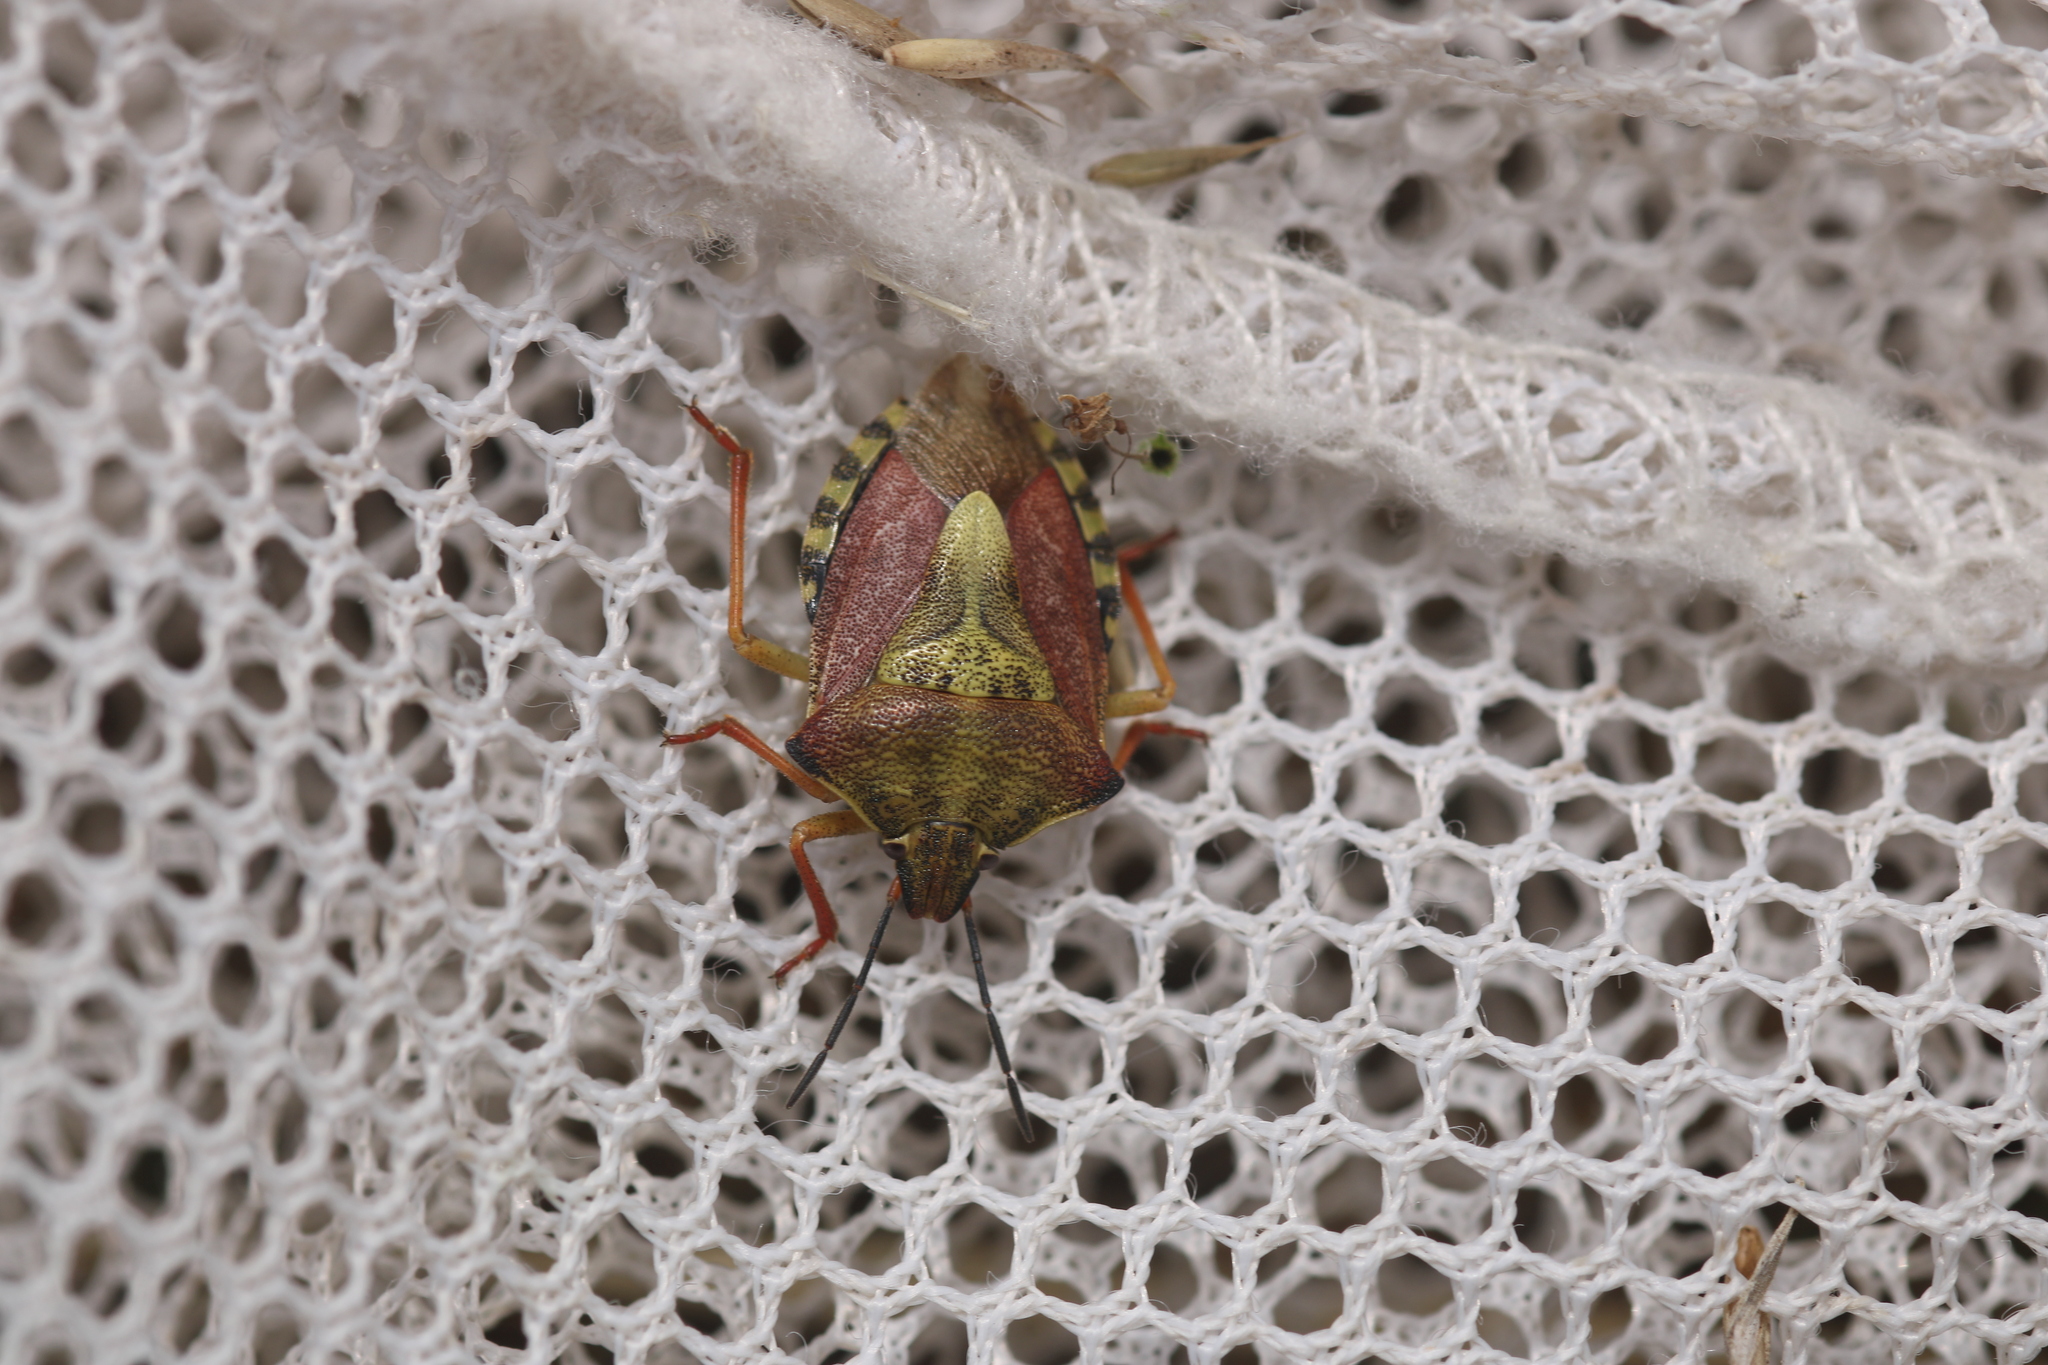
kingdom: Animalia
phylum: Arthropoda
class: Insecta
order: Hemiptera
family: Pentatomidae
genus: Carpocoris
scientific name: Carpocoris purpureipennis
